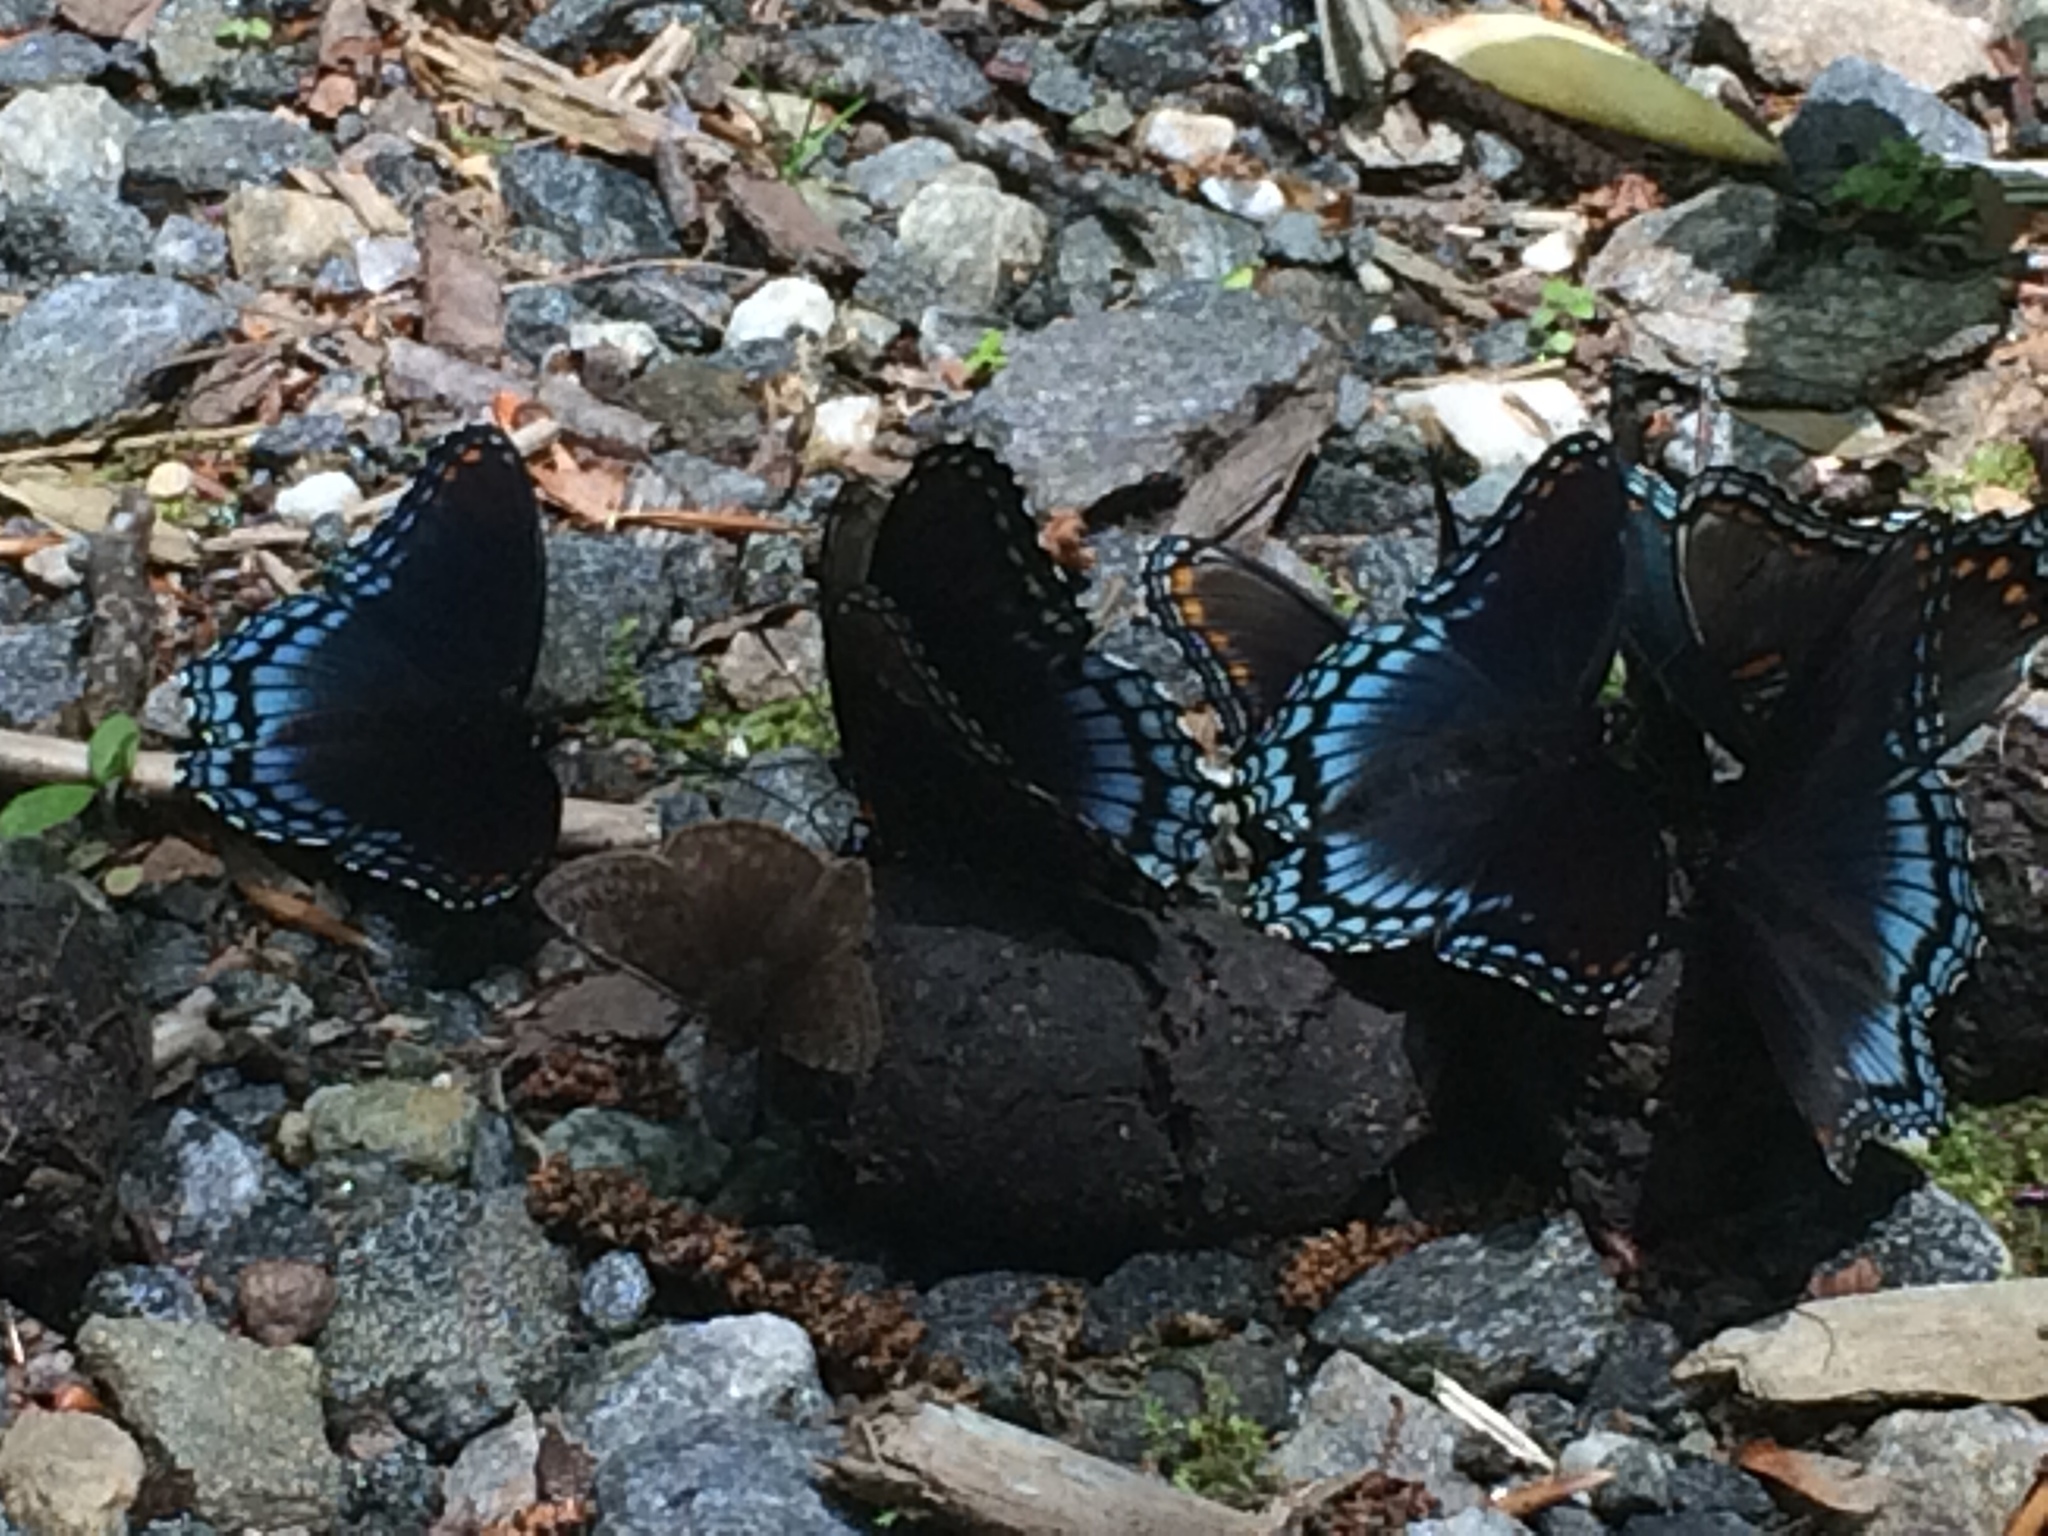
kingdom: Animalia
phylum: Arthropoda
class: Insecta
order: Lepidoptera
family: Nymphalidae
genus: Limenitis
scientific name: Limenitis astyanax
